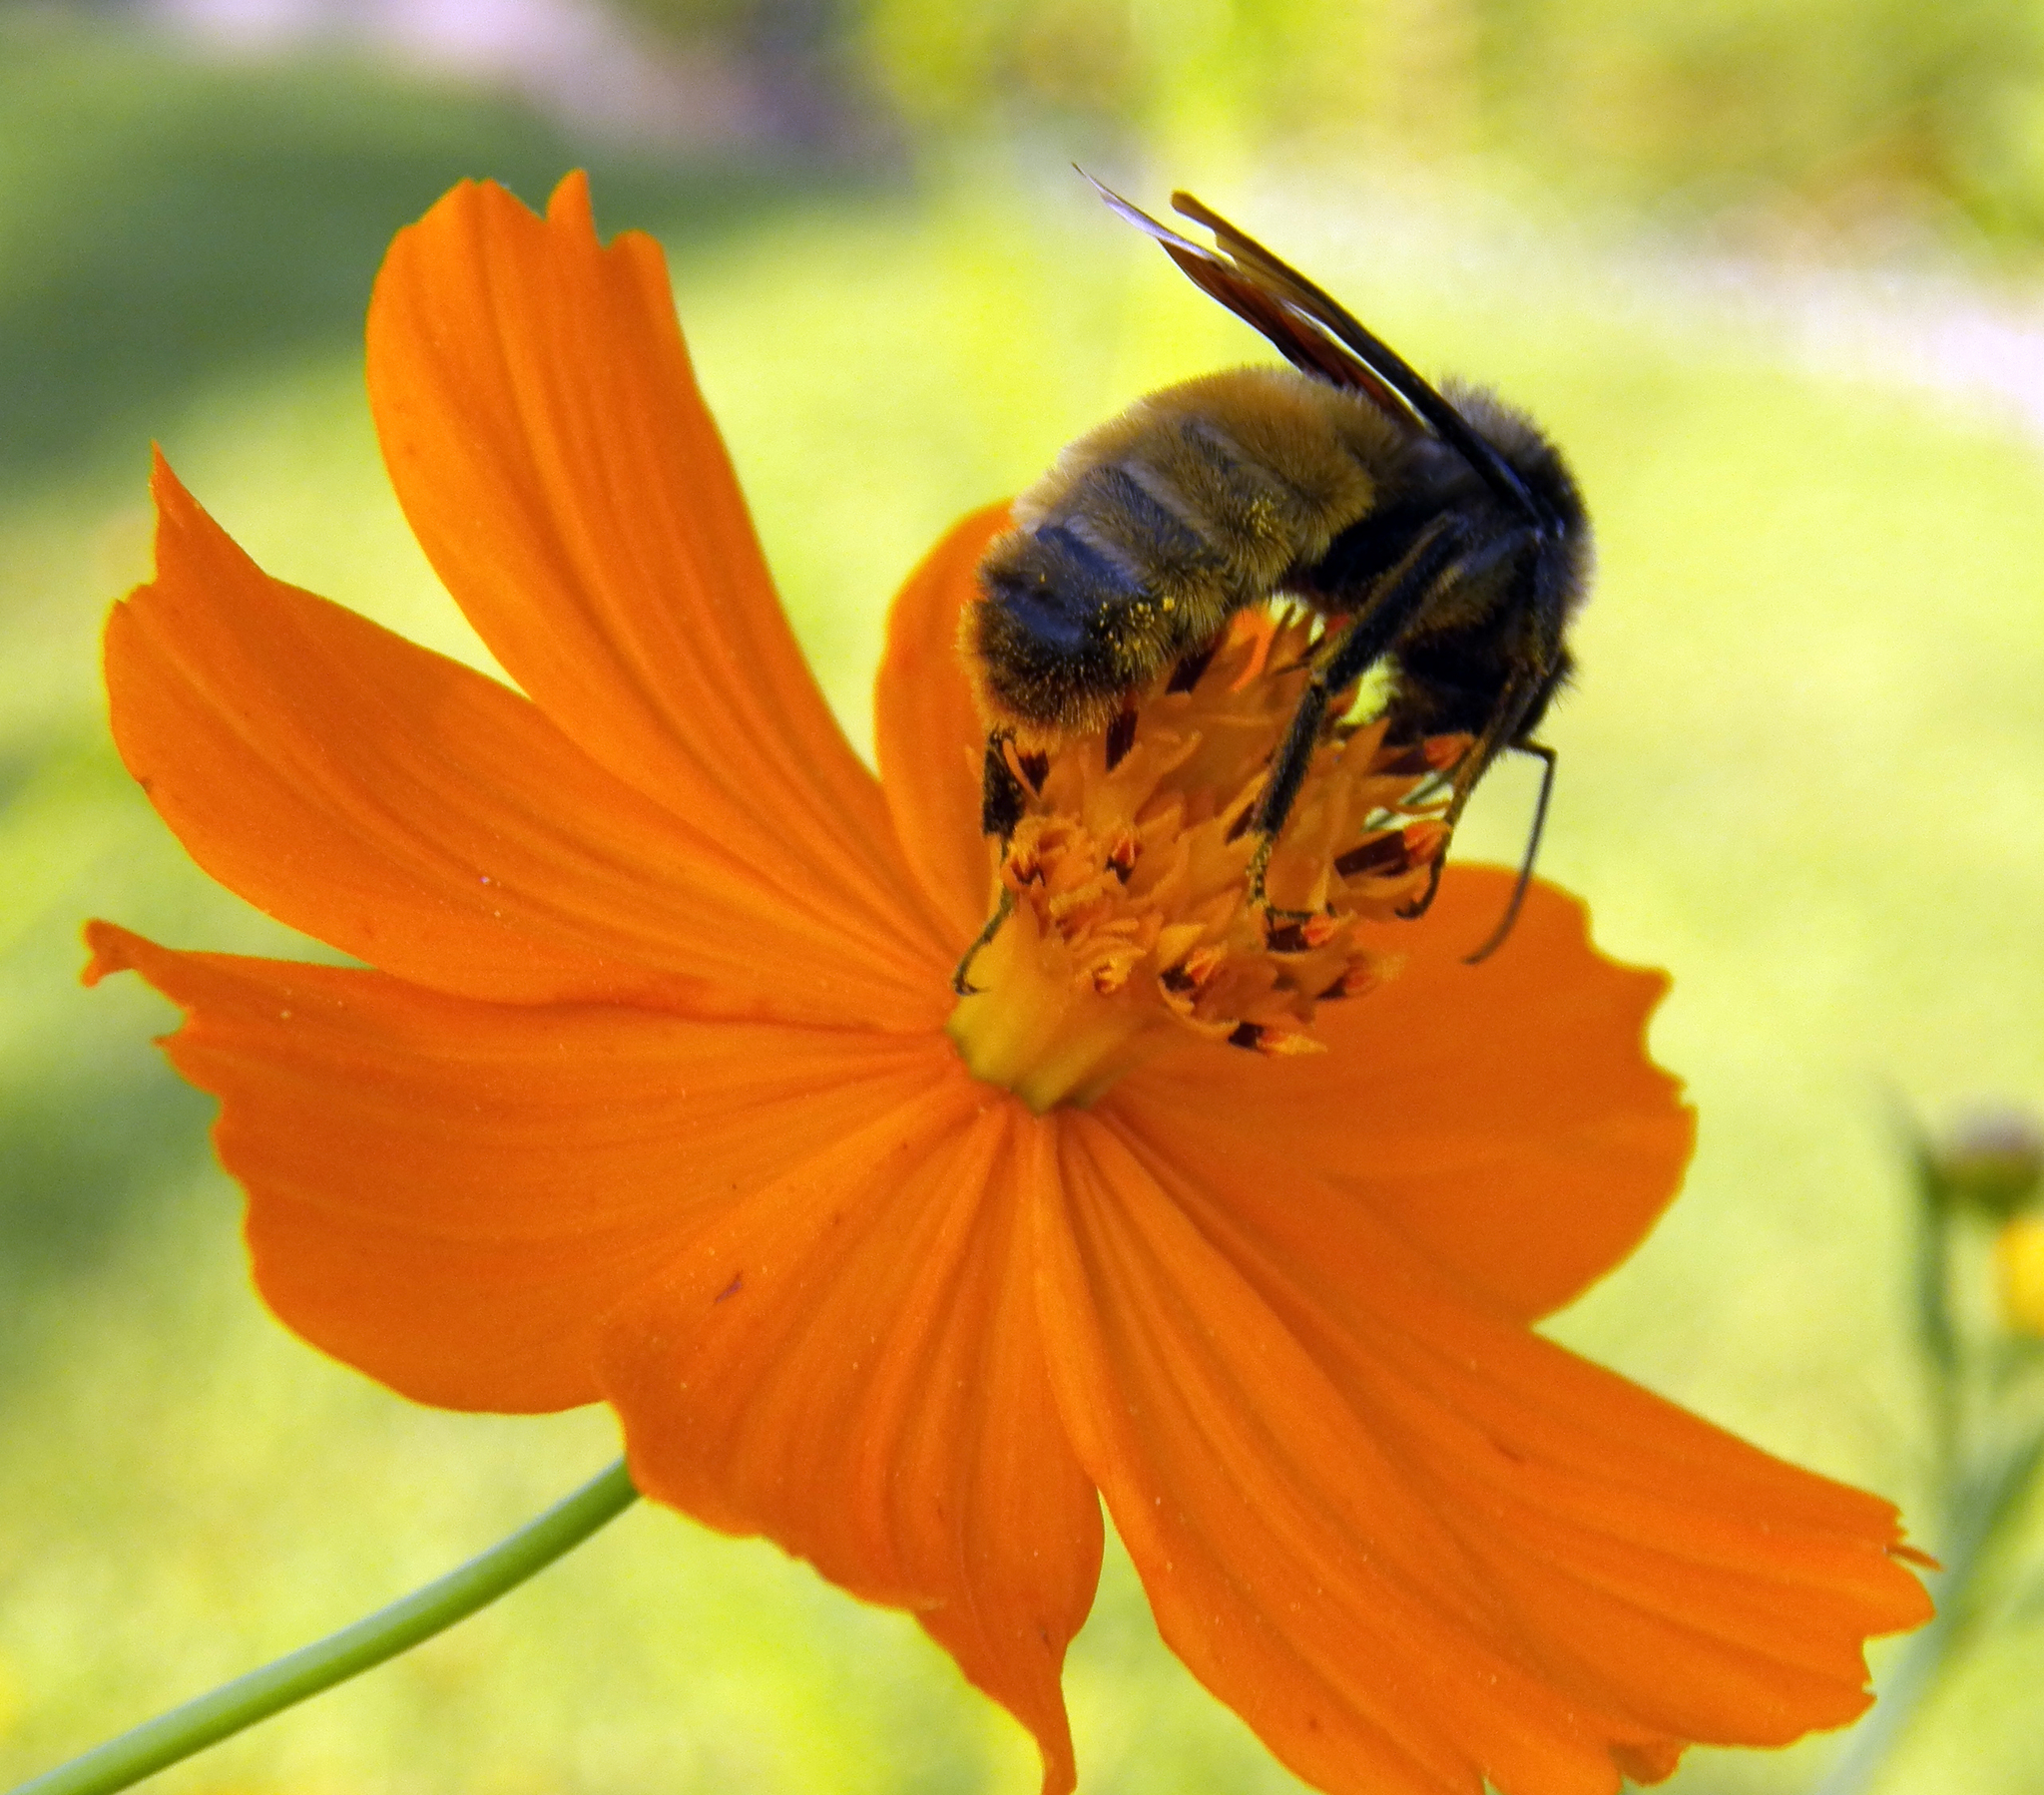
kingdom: Animalia
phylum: Arthropoda
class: Insecta
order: Hymenoptera
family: Apidae
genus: Bombus
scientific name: Bombus pensylvanicus
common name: Bumble bee
